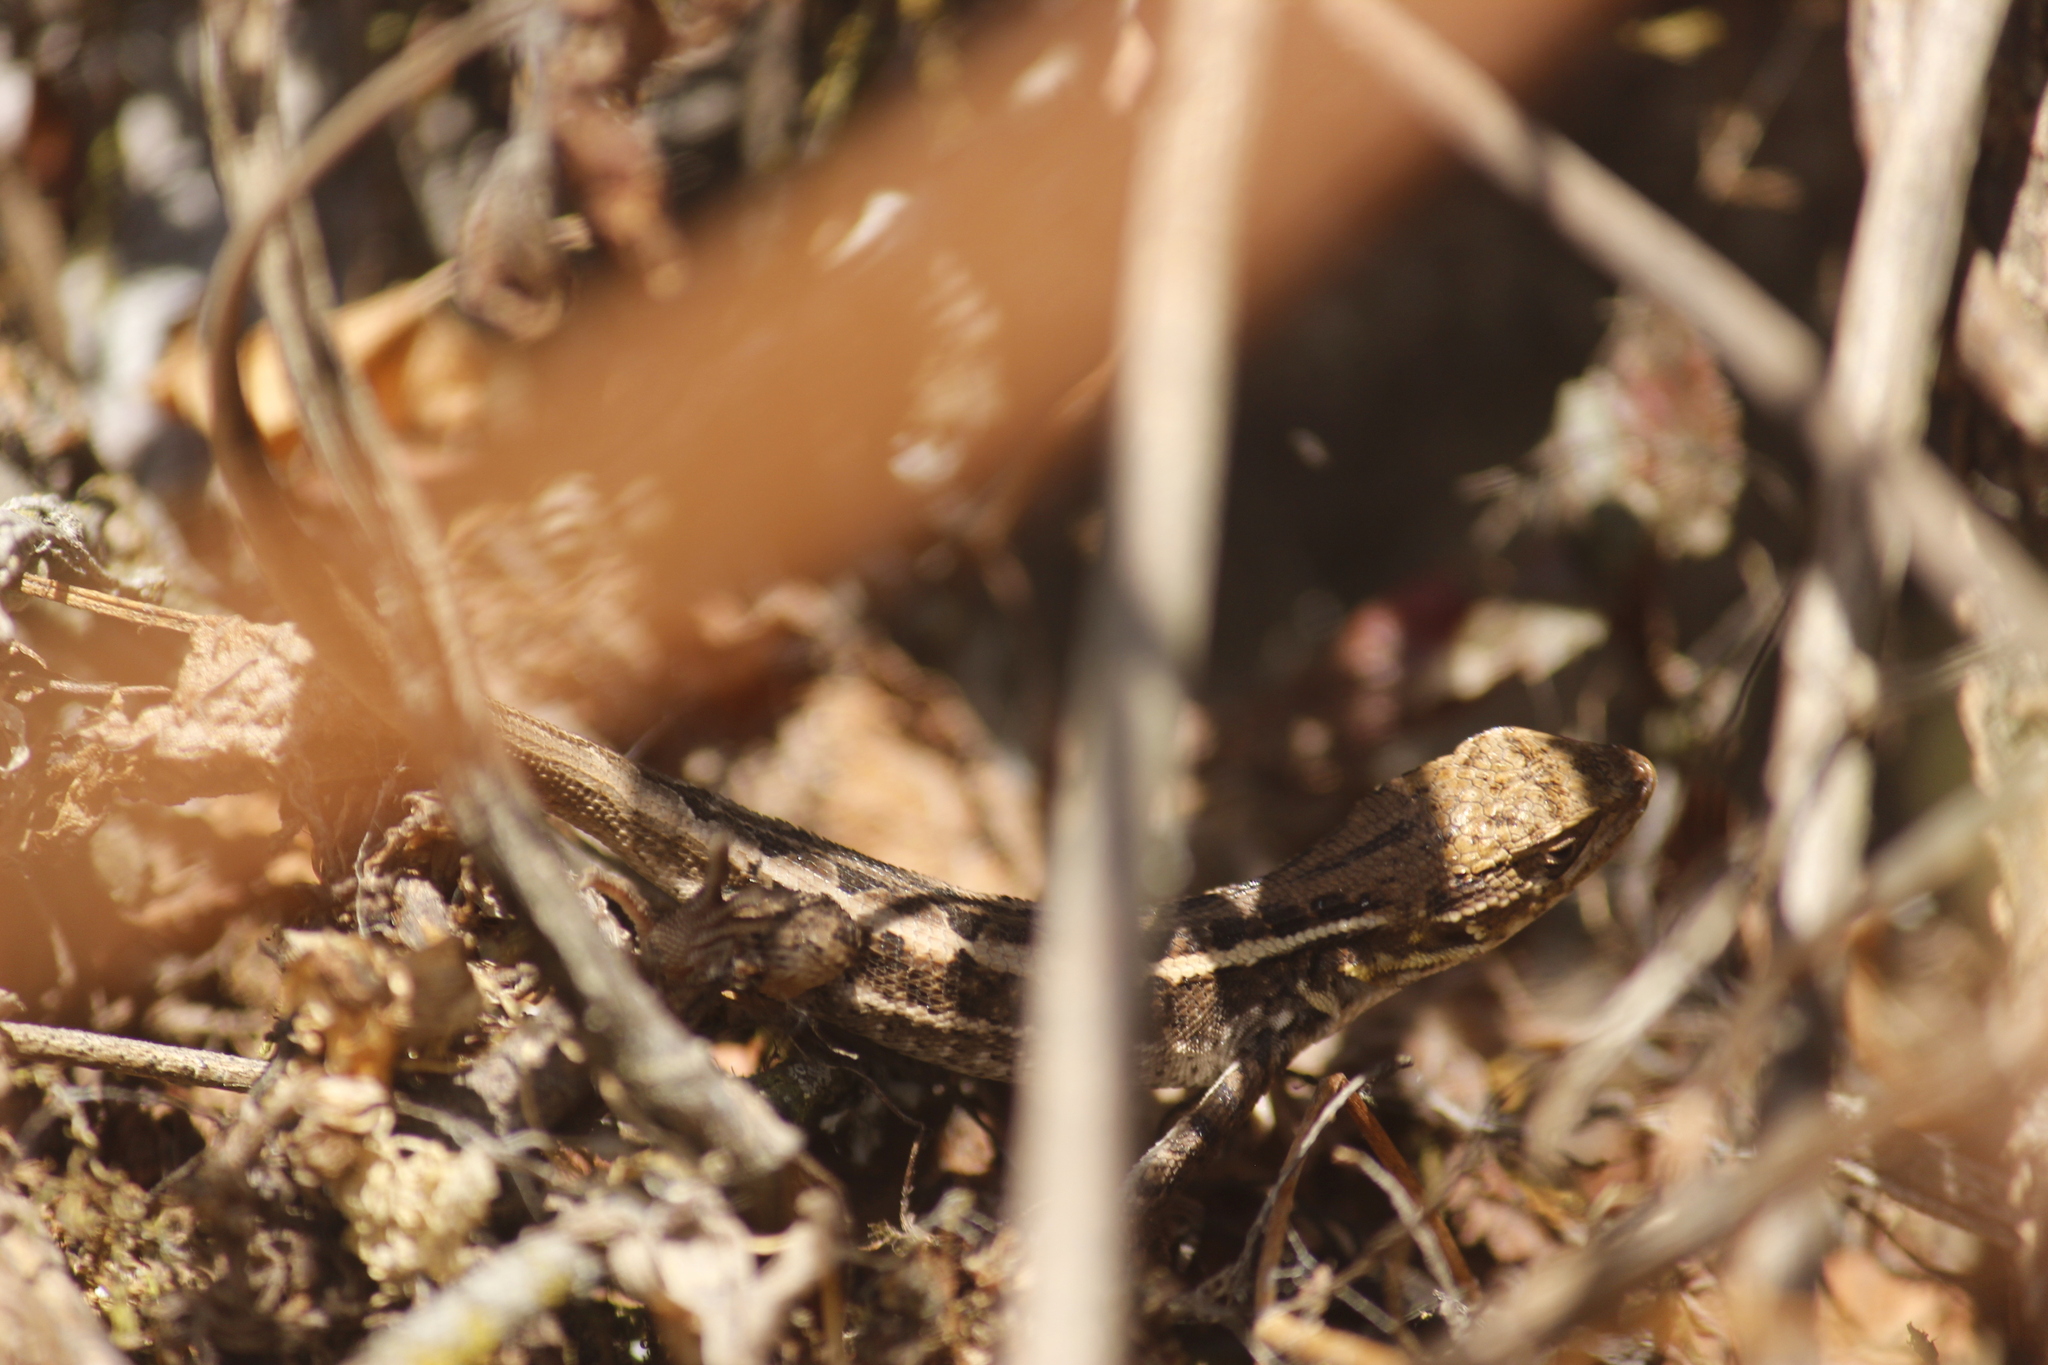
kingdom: Animalia
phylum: Chordata
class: Squamata
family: Tropiduridae
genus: Stenocercus
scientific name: Stenocercus ornatissimus
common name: Lesser ornate whorltail iguana
